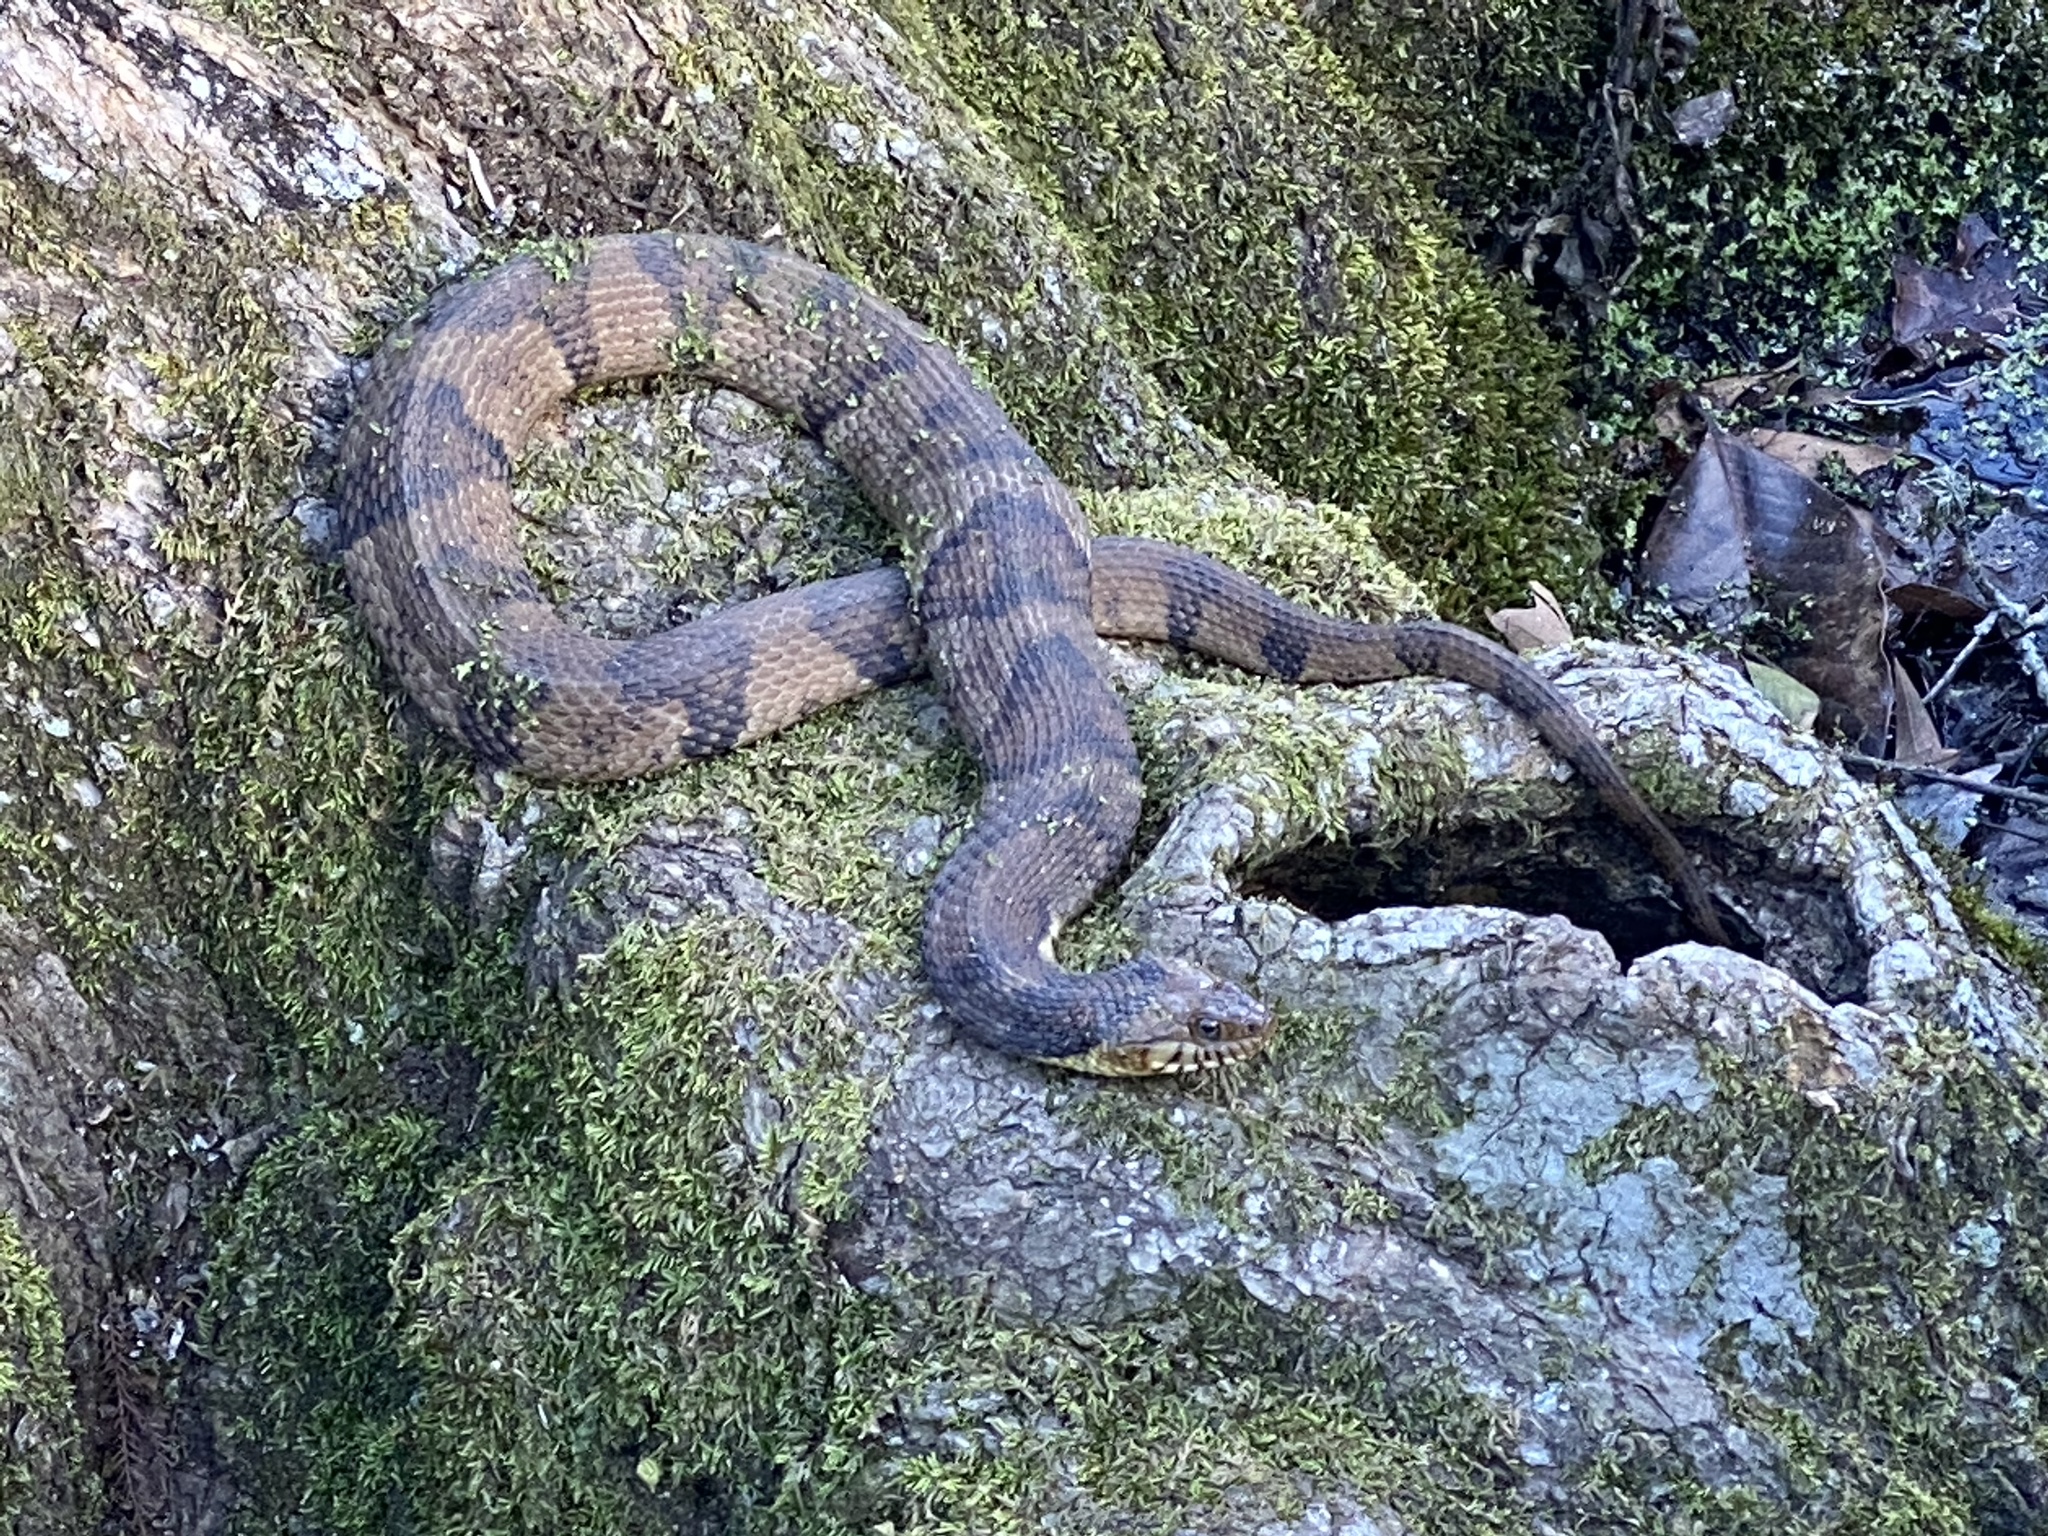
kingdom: Animalia
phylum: Chordata
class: Squamata
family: Colubridae
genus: Nerodia
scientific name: Nerodia fasciata
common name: Southern water snake
